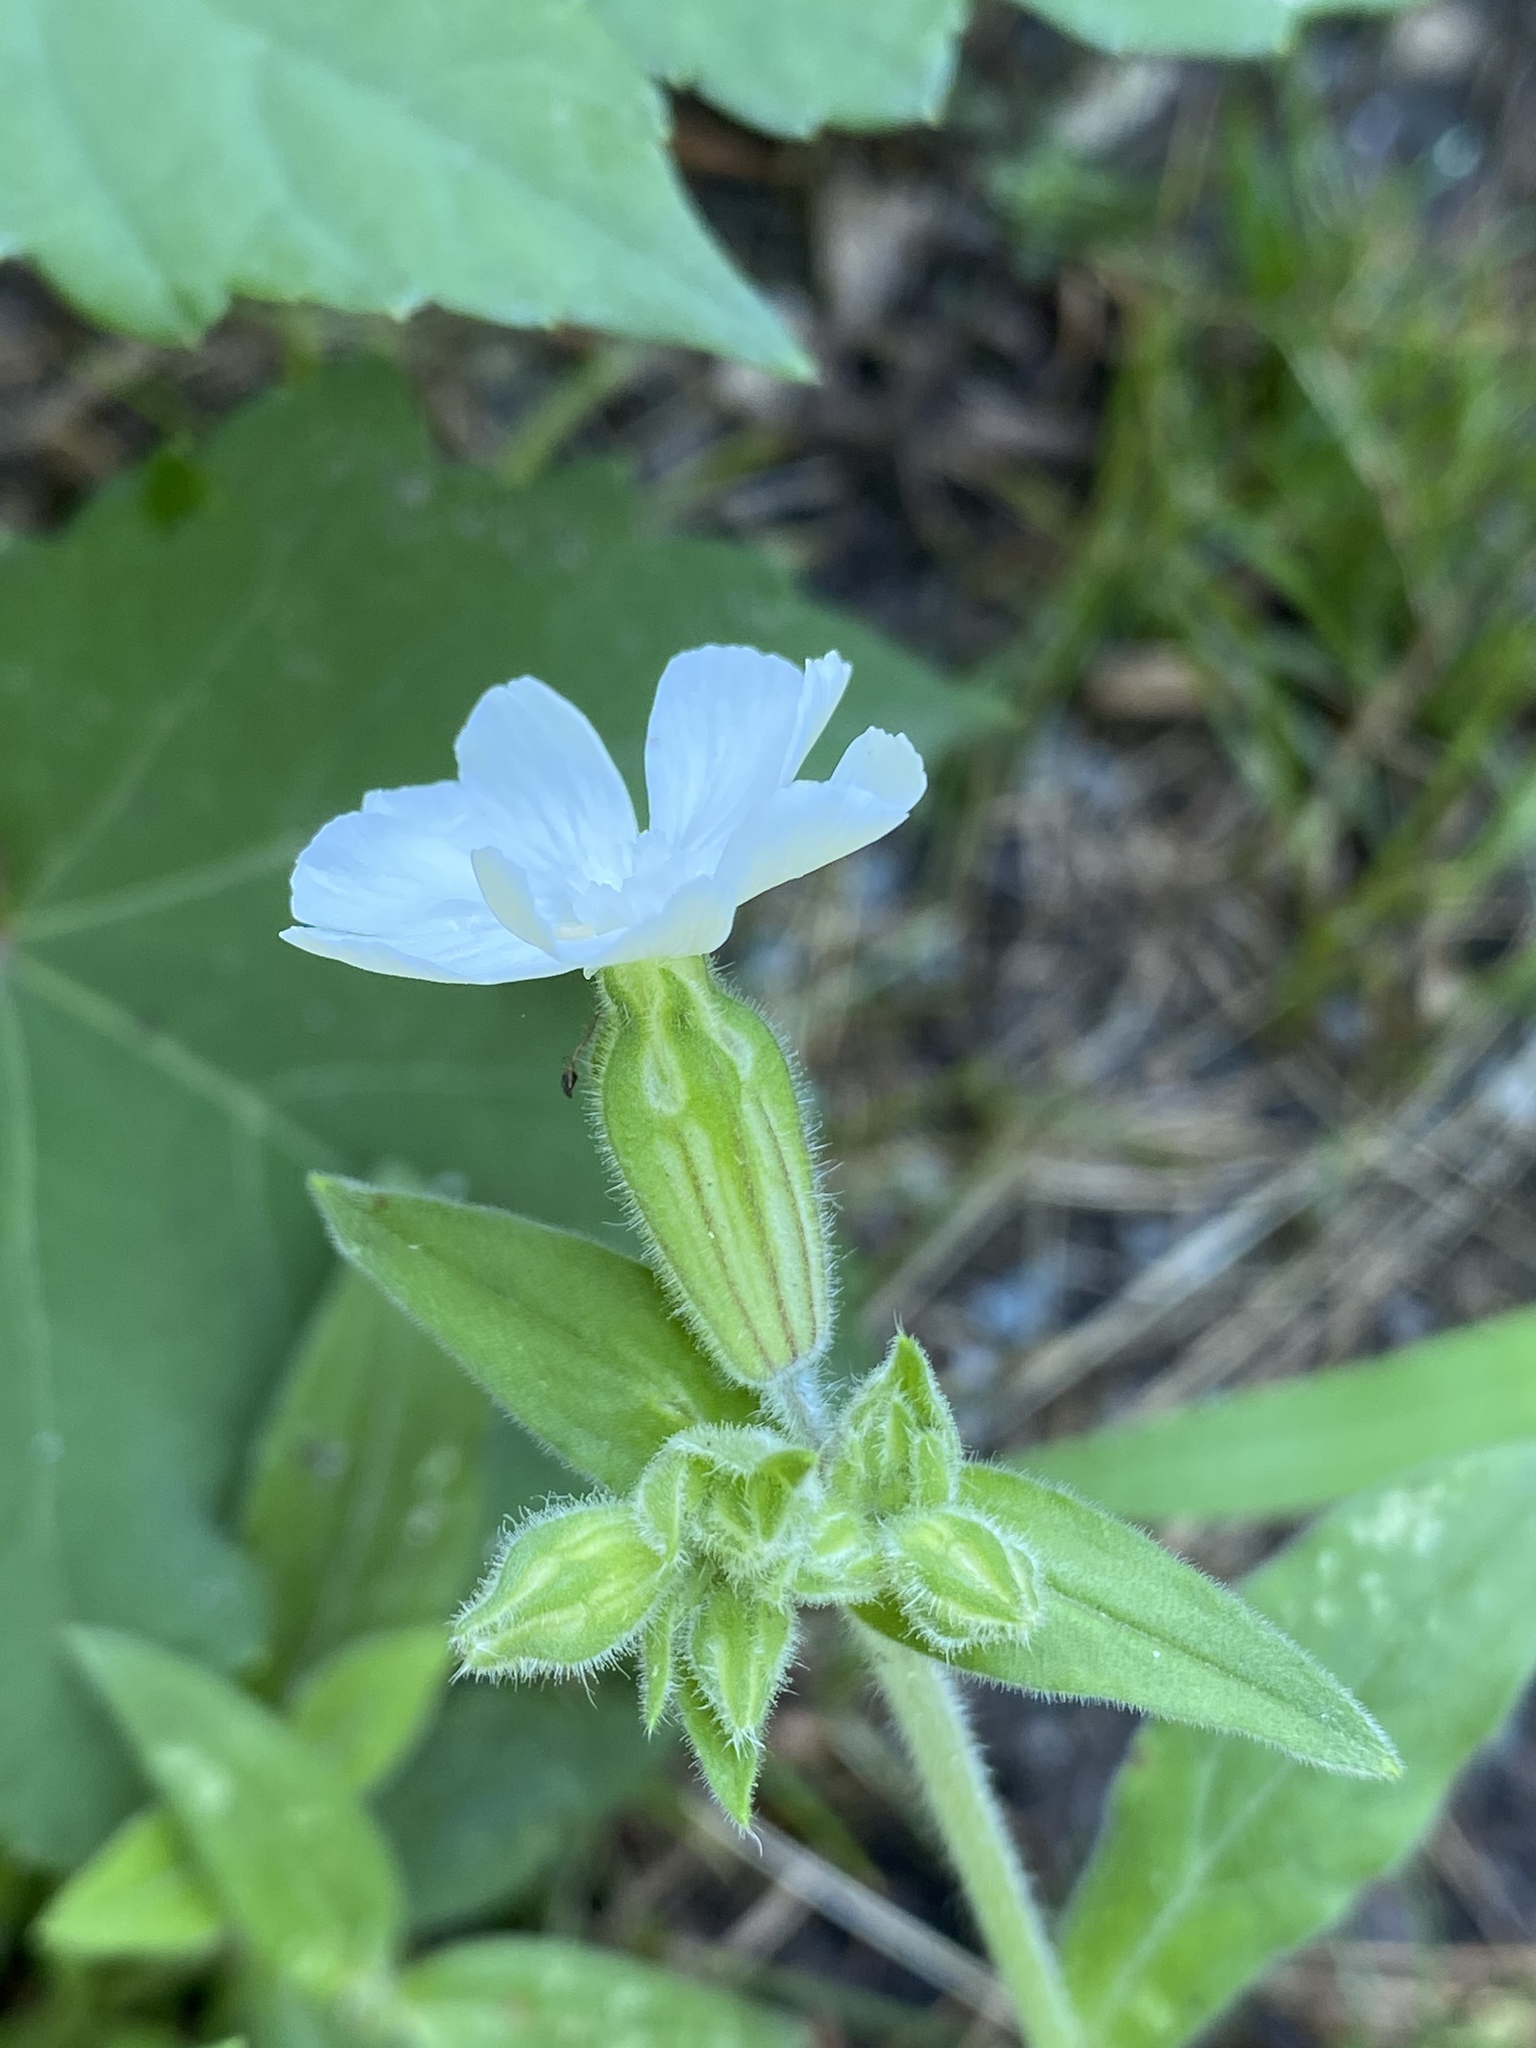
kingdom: Plantae
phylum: Tracheophyta
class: Magnoliopsida
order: Caryophyllales
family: Caryophyllaceae
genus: Silene
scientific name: Silene latifolia
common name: White campion
